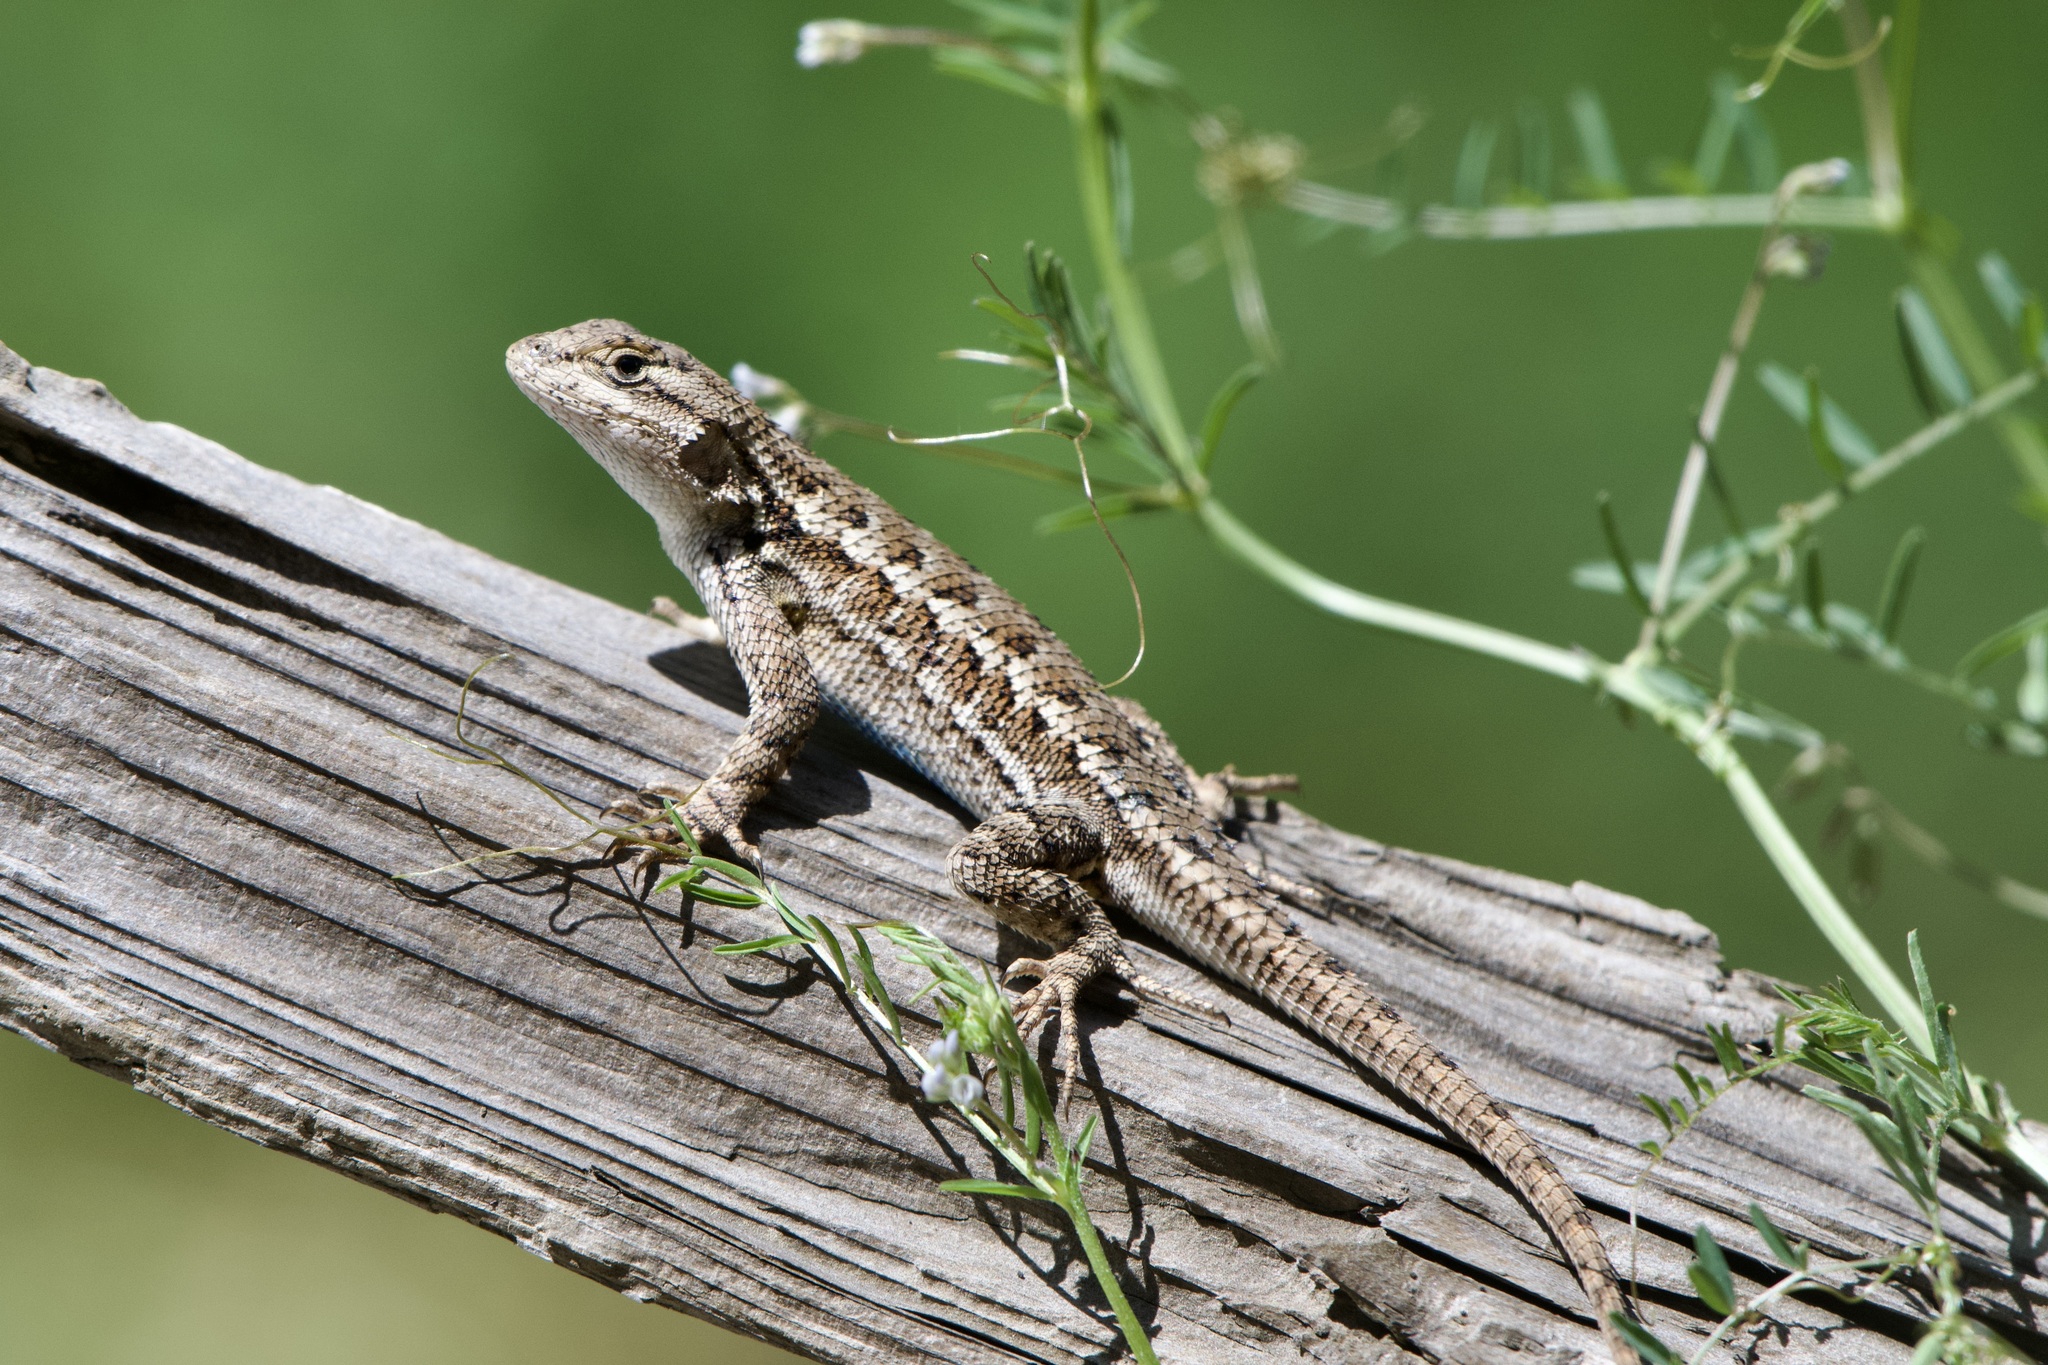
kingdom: Animalia
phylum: Chordata
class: Squamata
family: Phrynosomatidae
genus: Sceloporus
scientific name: Sceloporus occidentalis
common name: Western fence lizard
